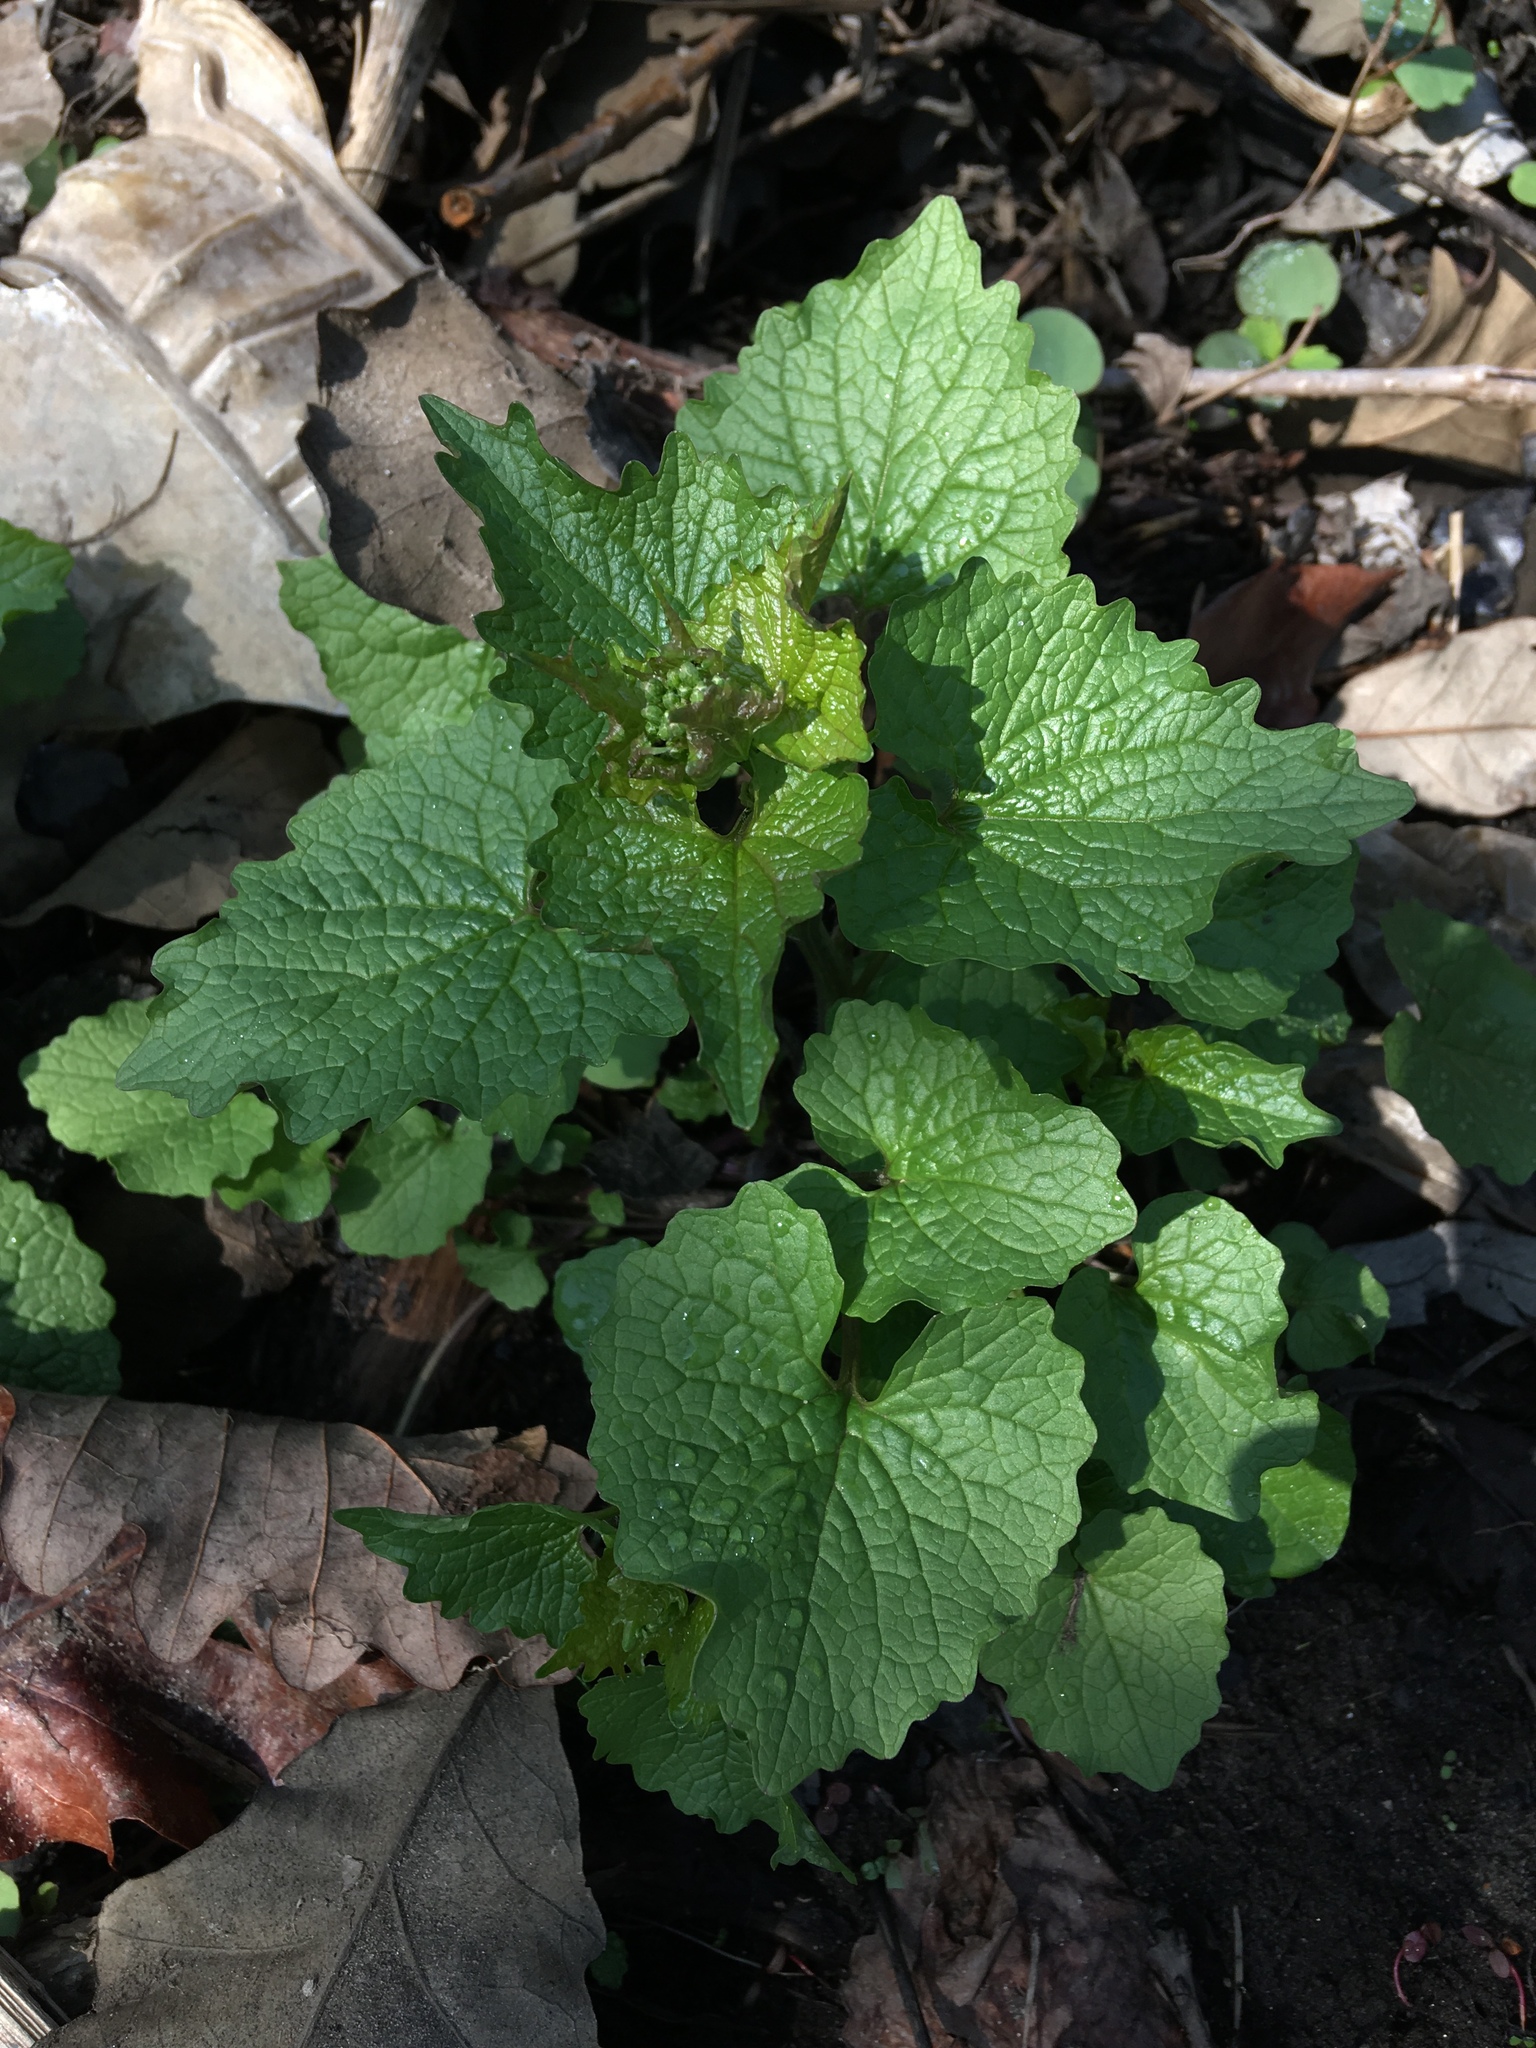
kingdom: Plantae
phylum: Tracheophyta
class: Magnoliopsida
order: Brassicales
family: Brassicaceae
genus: Alliaria
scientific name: Alliaria petiolata
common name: Garlic mustard
